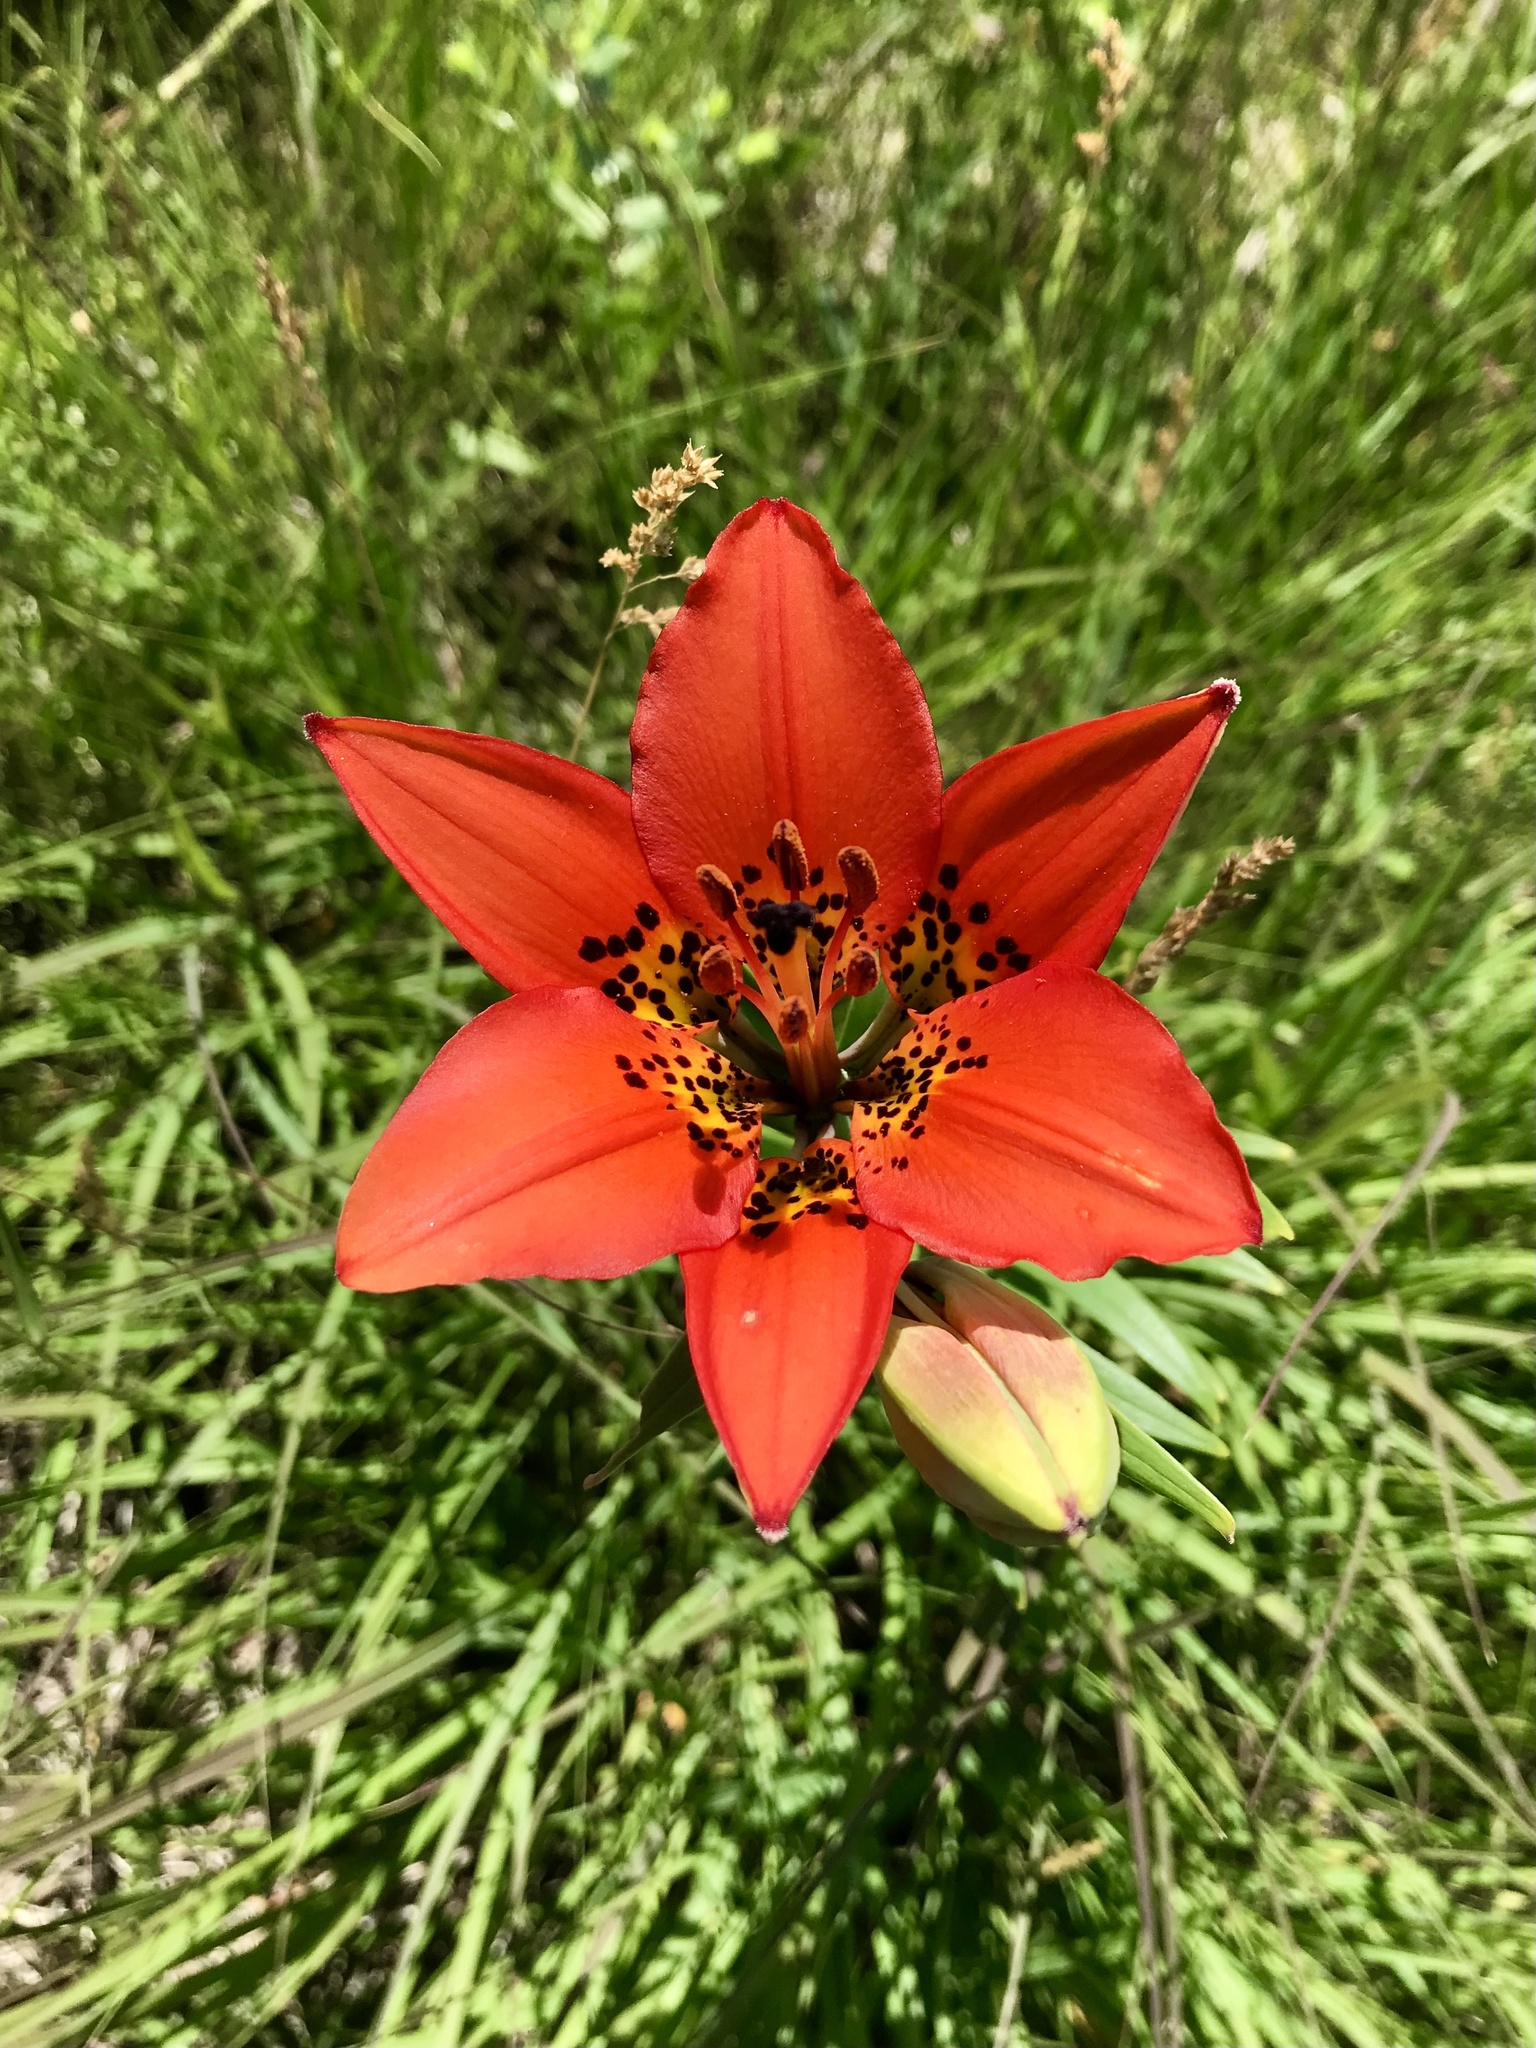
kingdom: Plantae
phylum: Tracheophyta
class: Liliopsida
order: Liliales
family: Liliaceae
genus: Lilium
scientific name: Lilium philadelphicum
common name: Red lily
